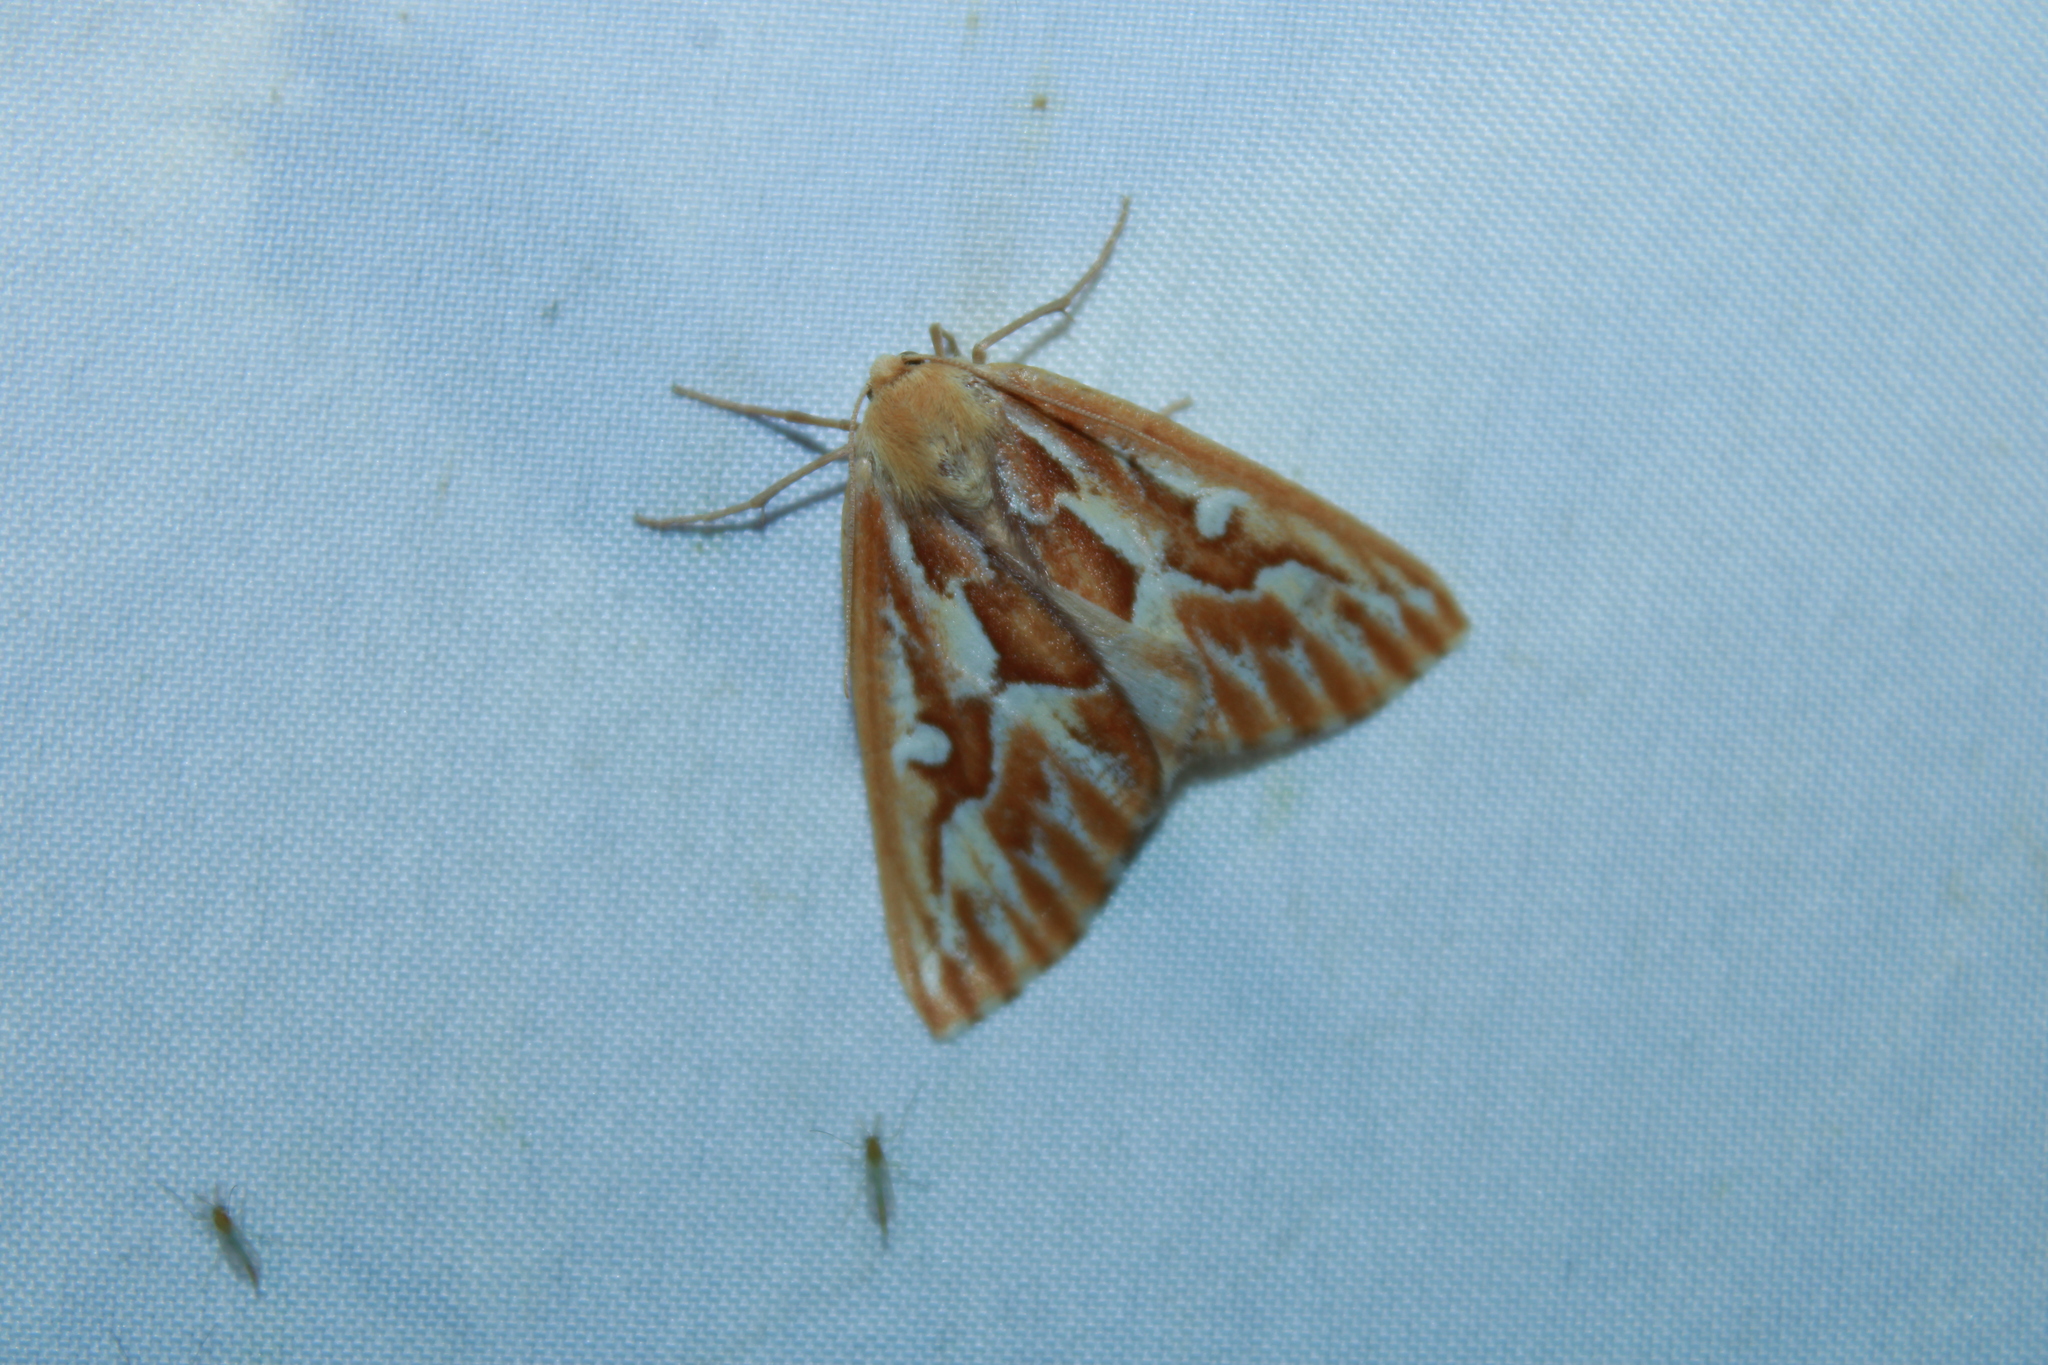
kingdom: Animalia
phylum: Arthropoda
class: Insecta
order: Lepidoptera
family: Geometridae
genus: Caripeta
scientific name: Caripeta piniata
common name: Northern pine looper moth
